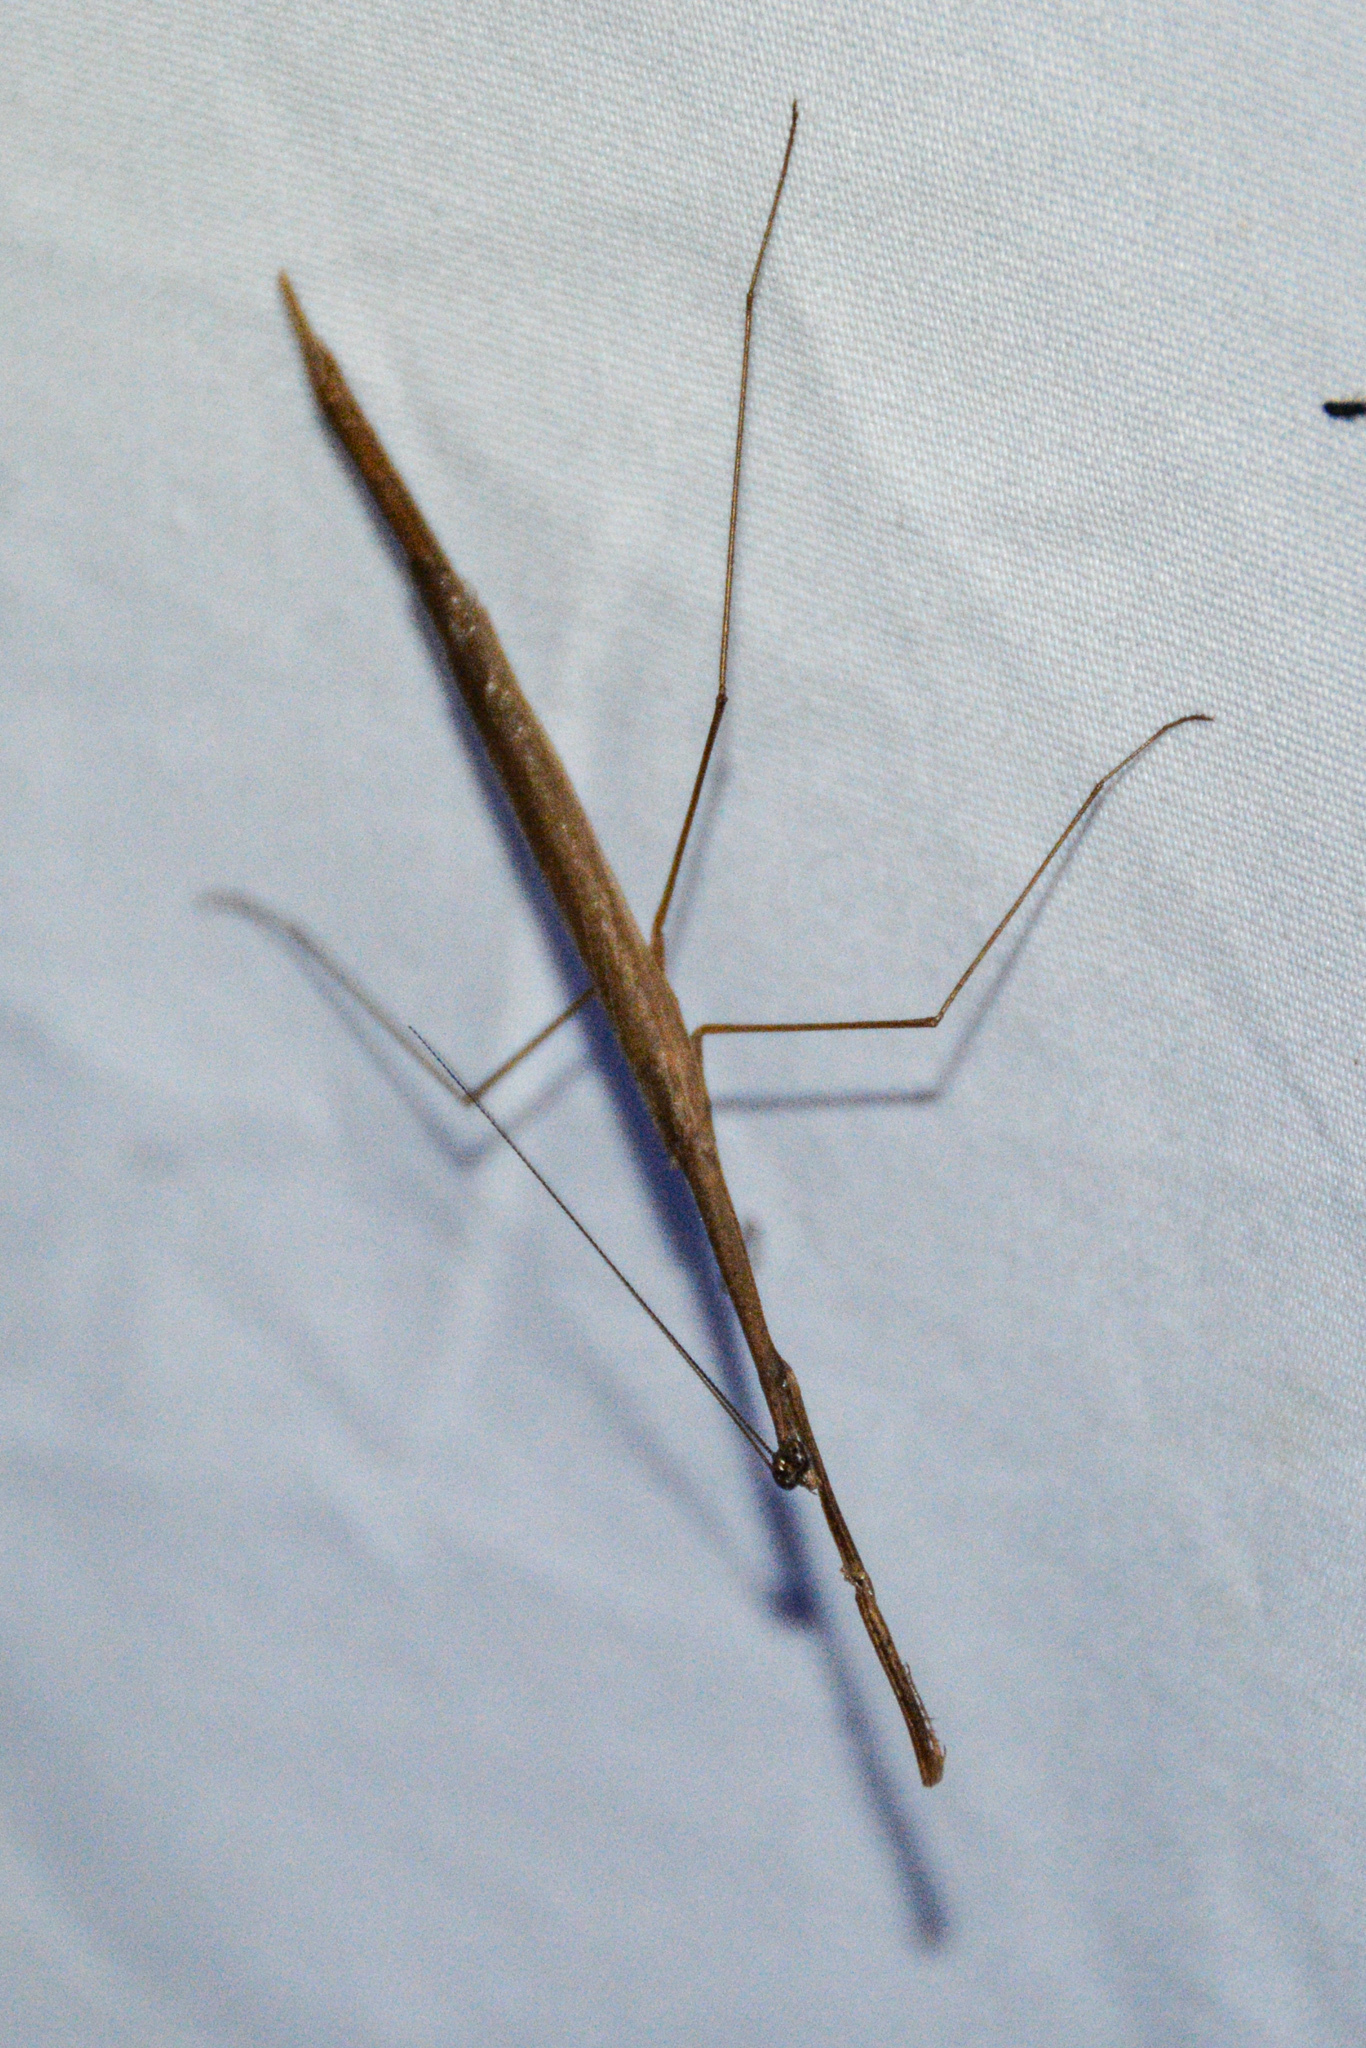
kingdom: Animalia
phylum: Arthropoda
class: Insecta
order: Mantodea
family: Thespidae
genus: Thesprotia
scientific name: Thesprotia graminis
